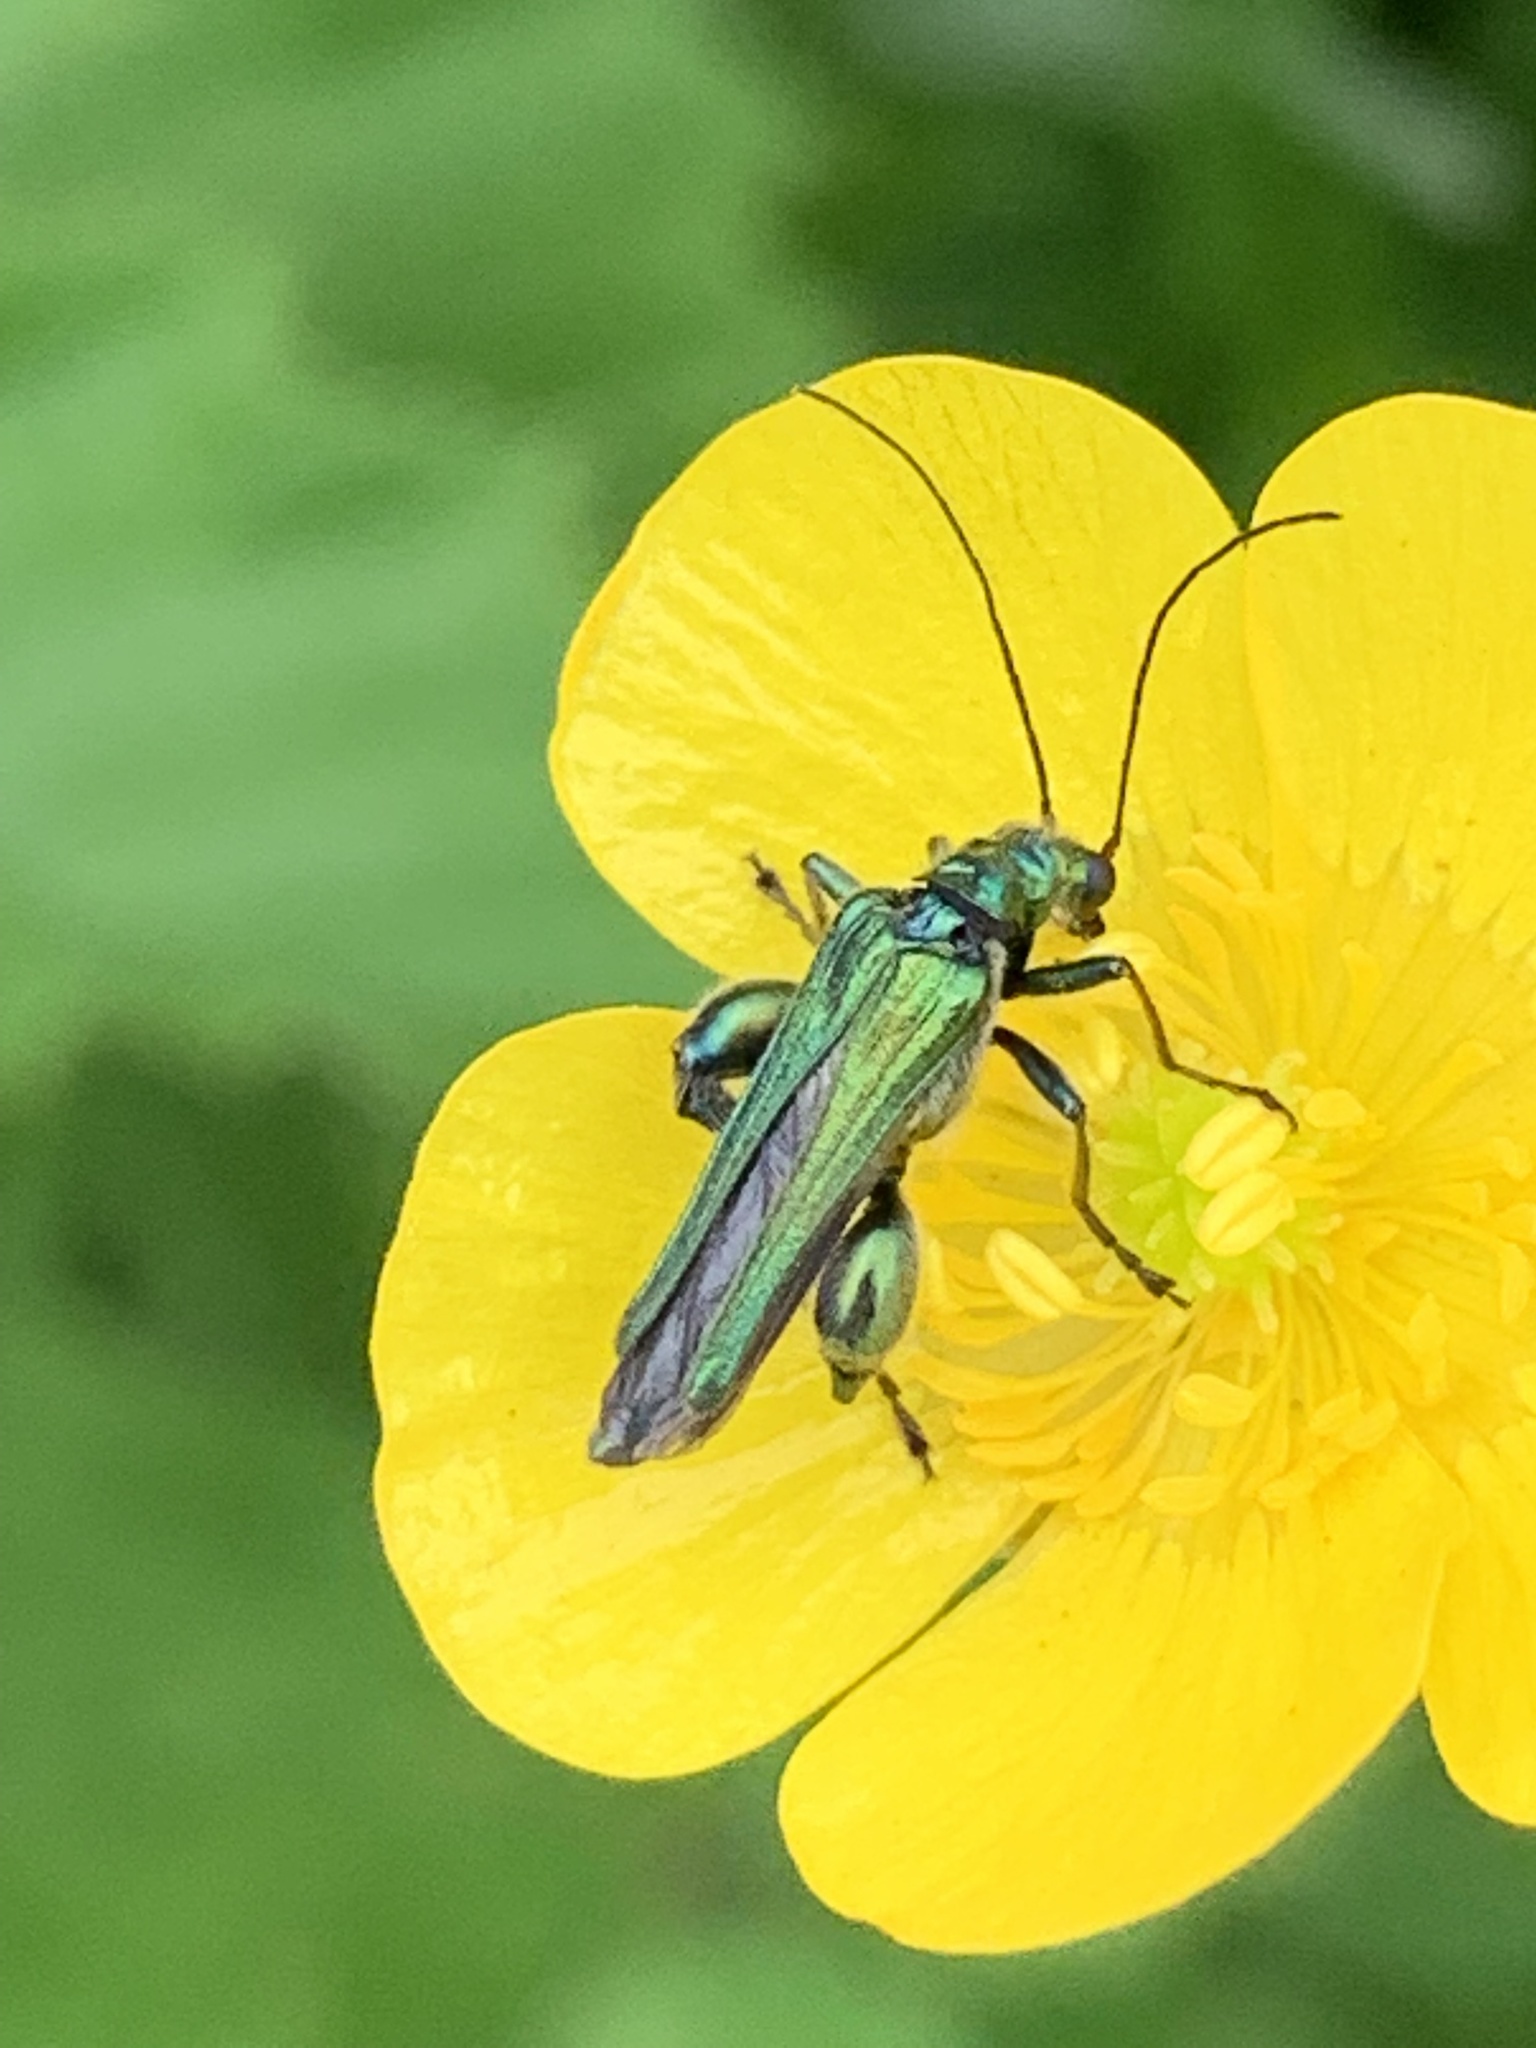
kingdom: Animalia
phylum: Arthropoda
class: Insecta
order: Coleoptera
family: Oedemeridae
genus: Oedemera
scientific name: Oedemera nobilis
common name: Swollen-thighed beetle
